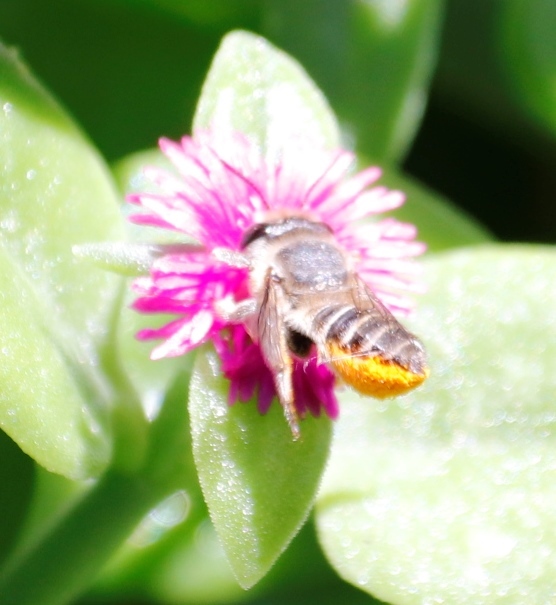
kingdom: Animalia
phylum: Arthropoda
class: Insecta
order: Hymenoptera
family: Megachilidae
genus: Megachile
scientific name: Megachile venusta
